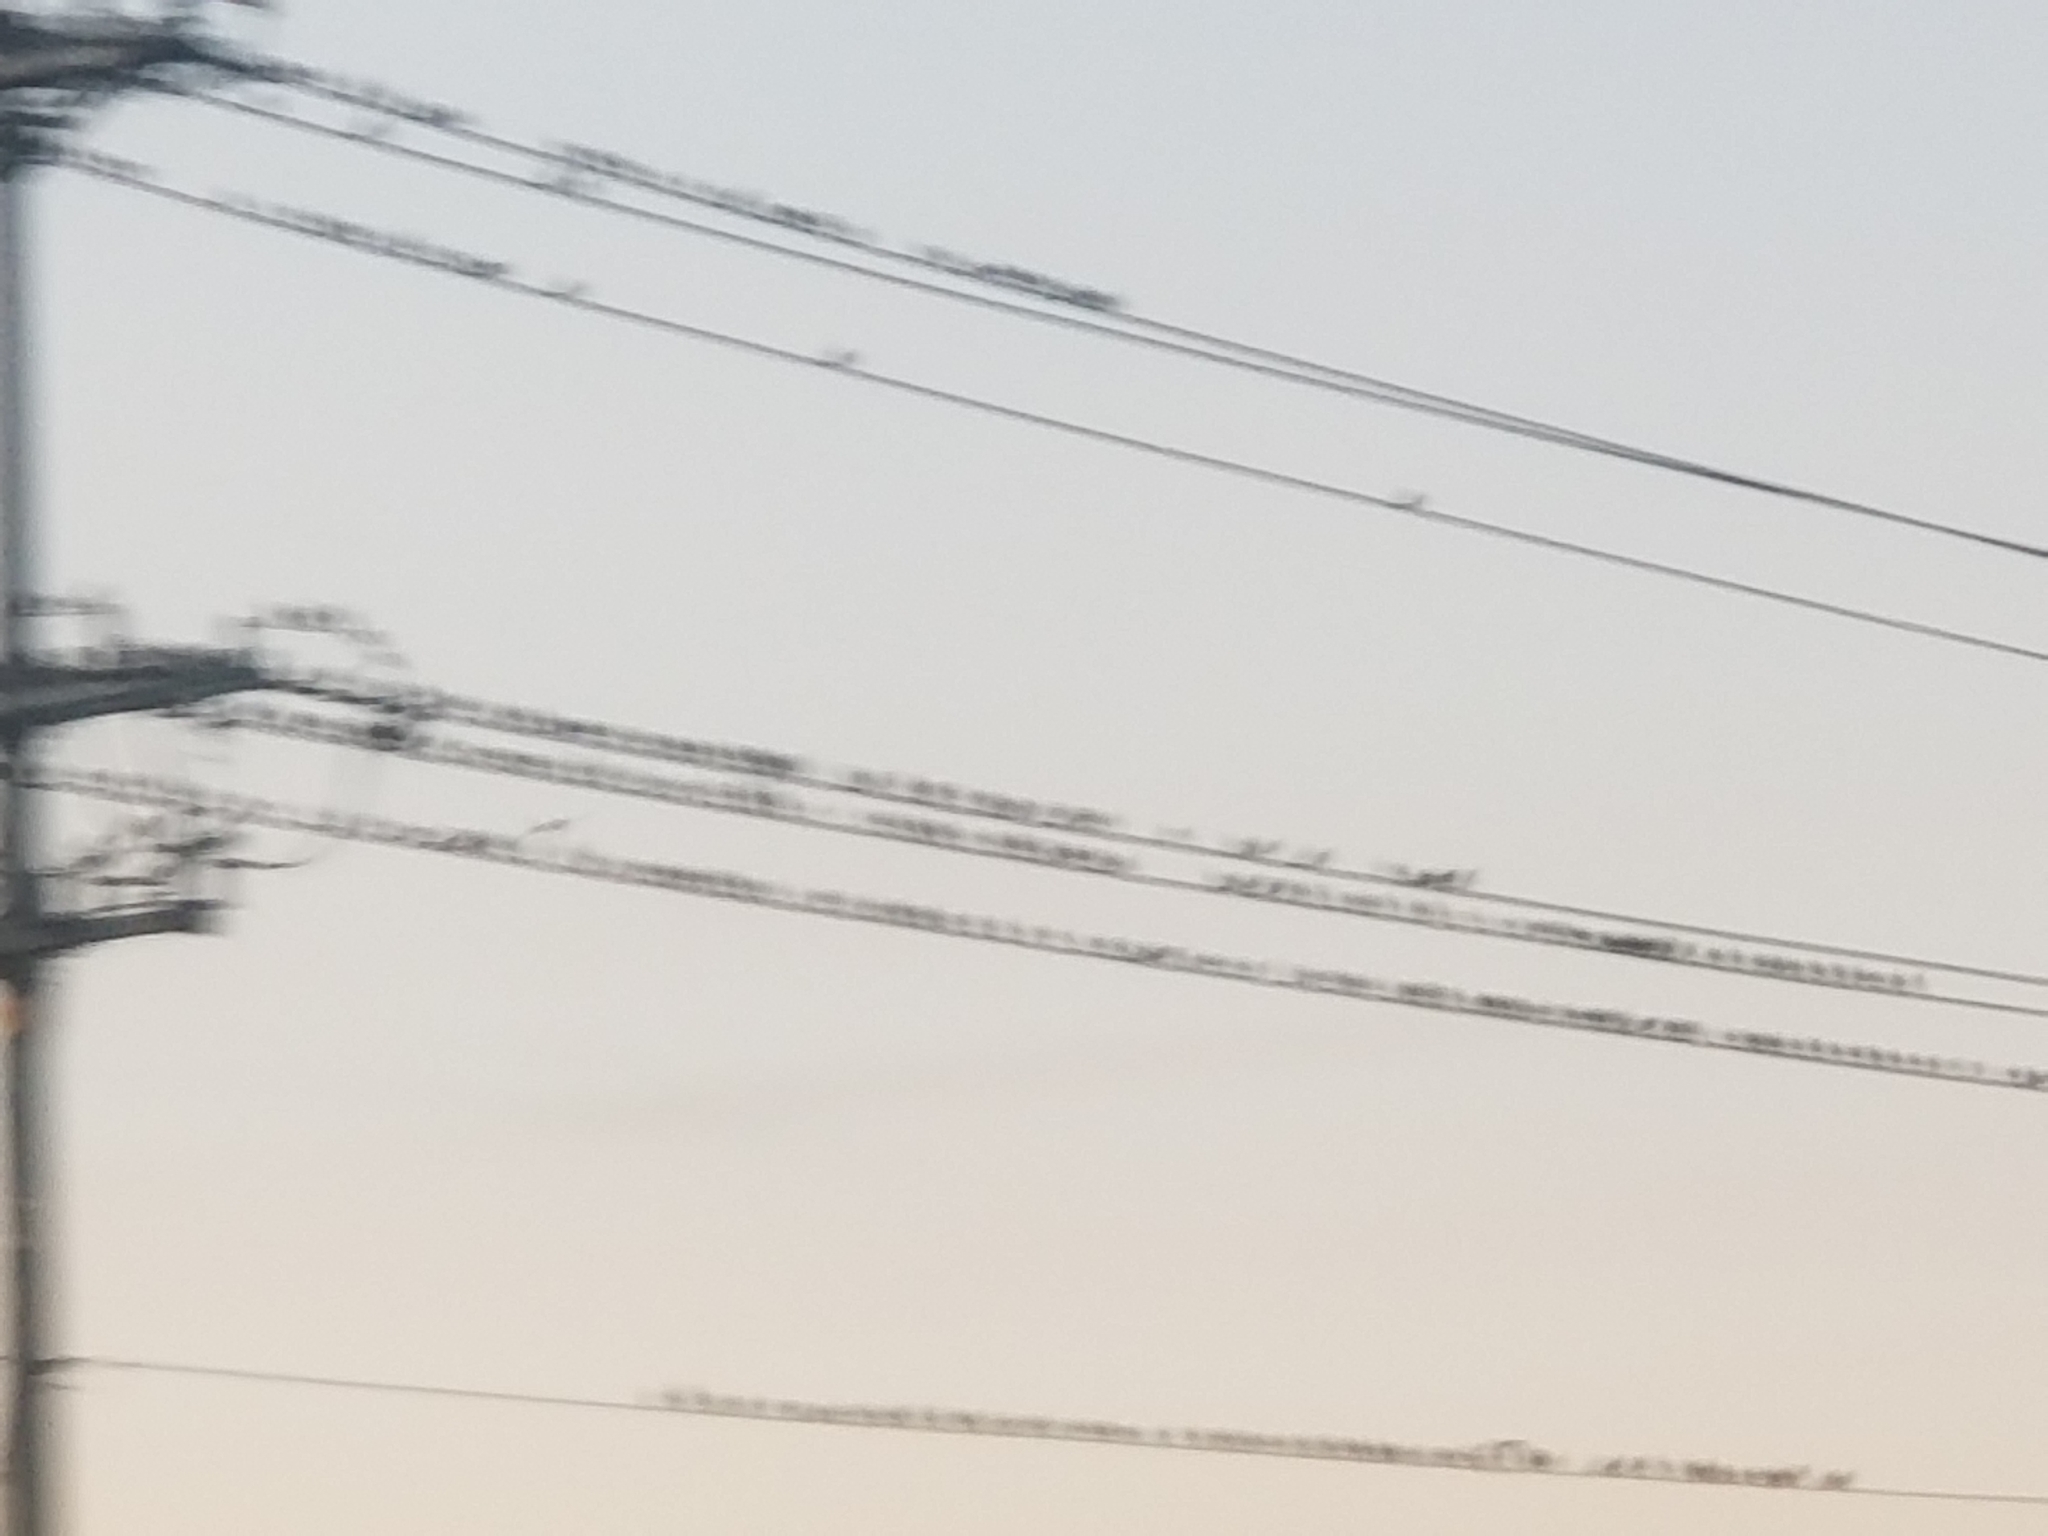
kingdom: Animalia
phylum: Chordata
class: Aves
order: Passeriformes
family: Sturnidae
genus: Sturnus
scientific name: Sturnus vulgaris
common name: Common starling
